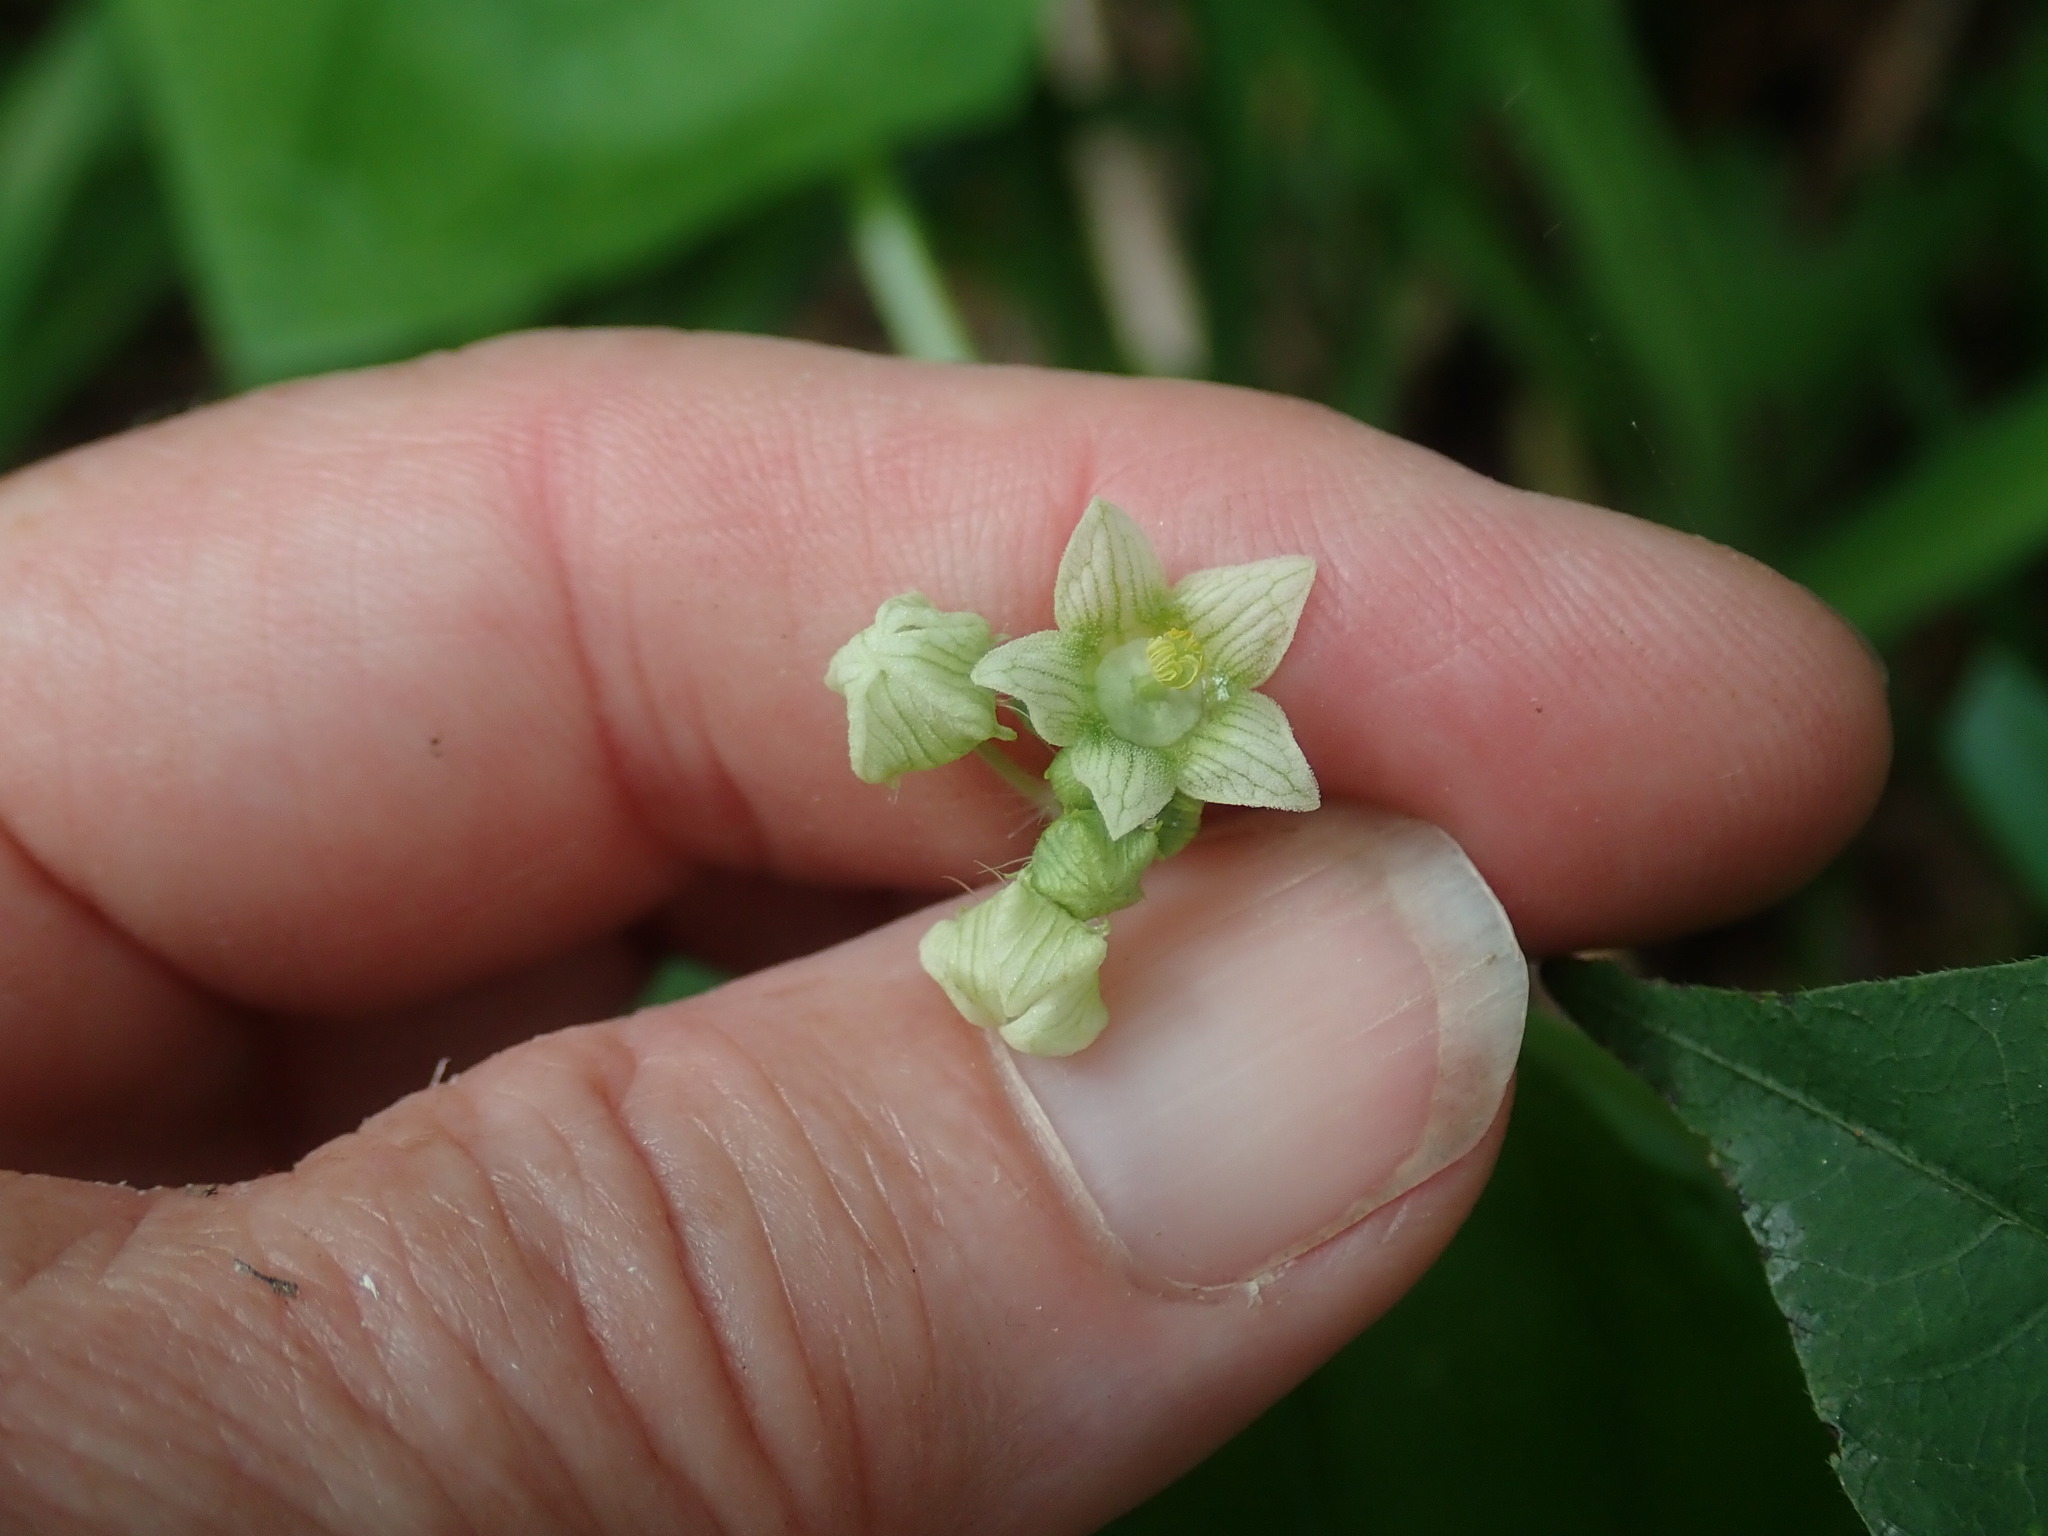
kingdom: Plantae
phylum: Tracheophyta
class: Magnoliopsida
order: Cucurbitales
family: Cucurbitaceae
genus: Sicyos
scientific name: Sicyos angulatus
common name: Angled burr cucumber
